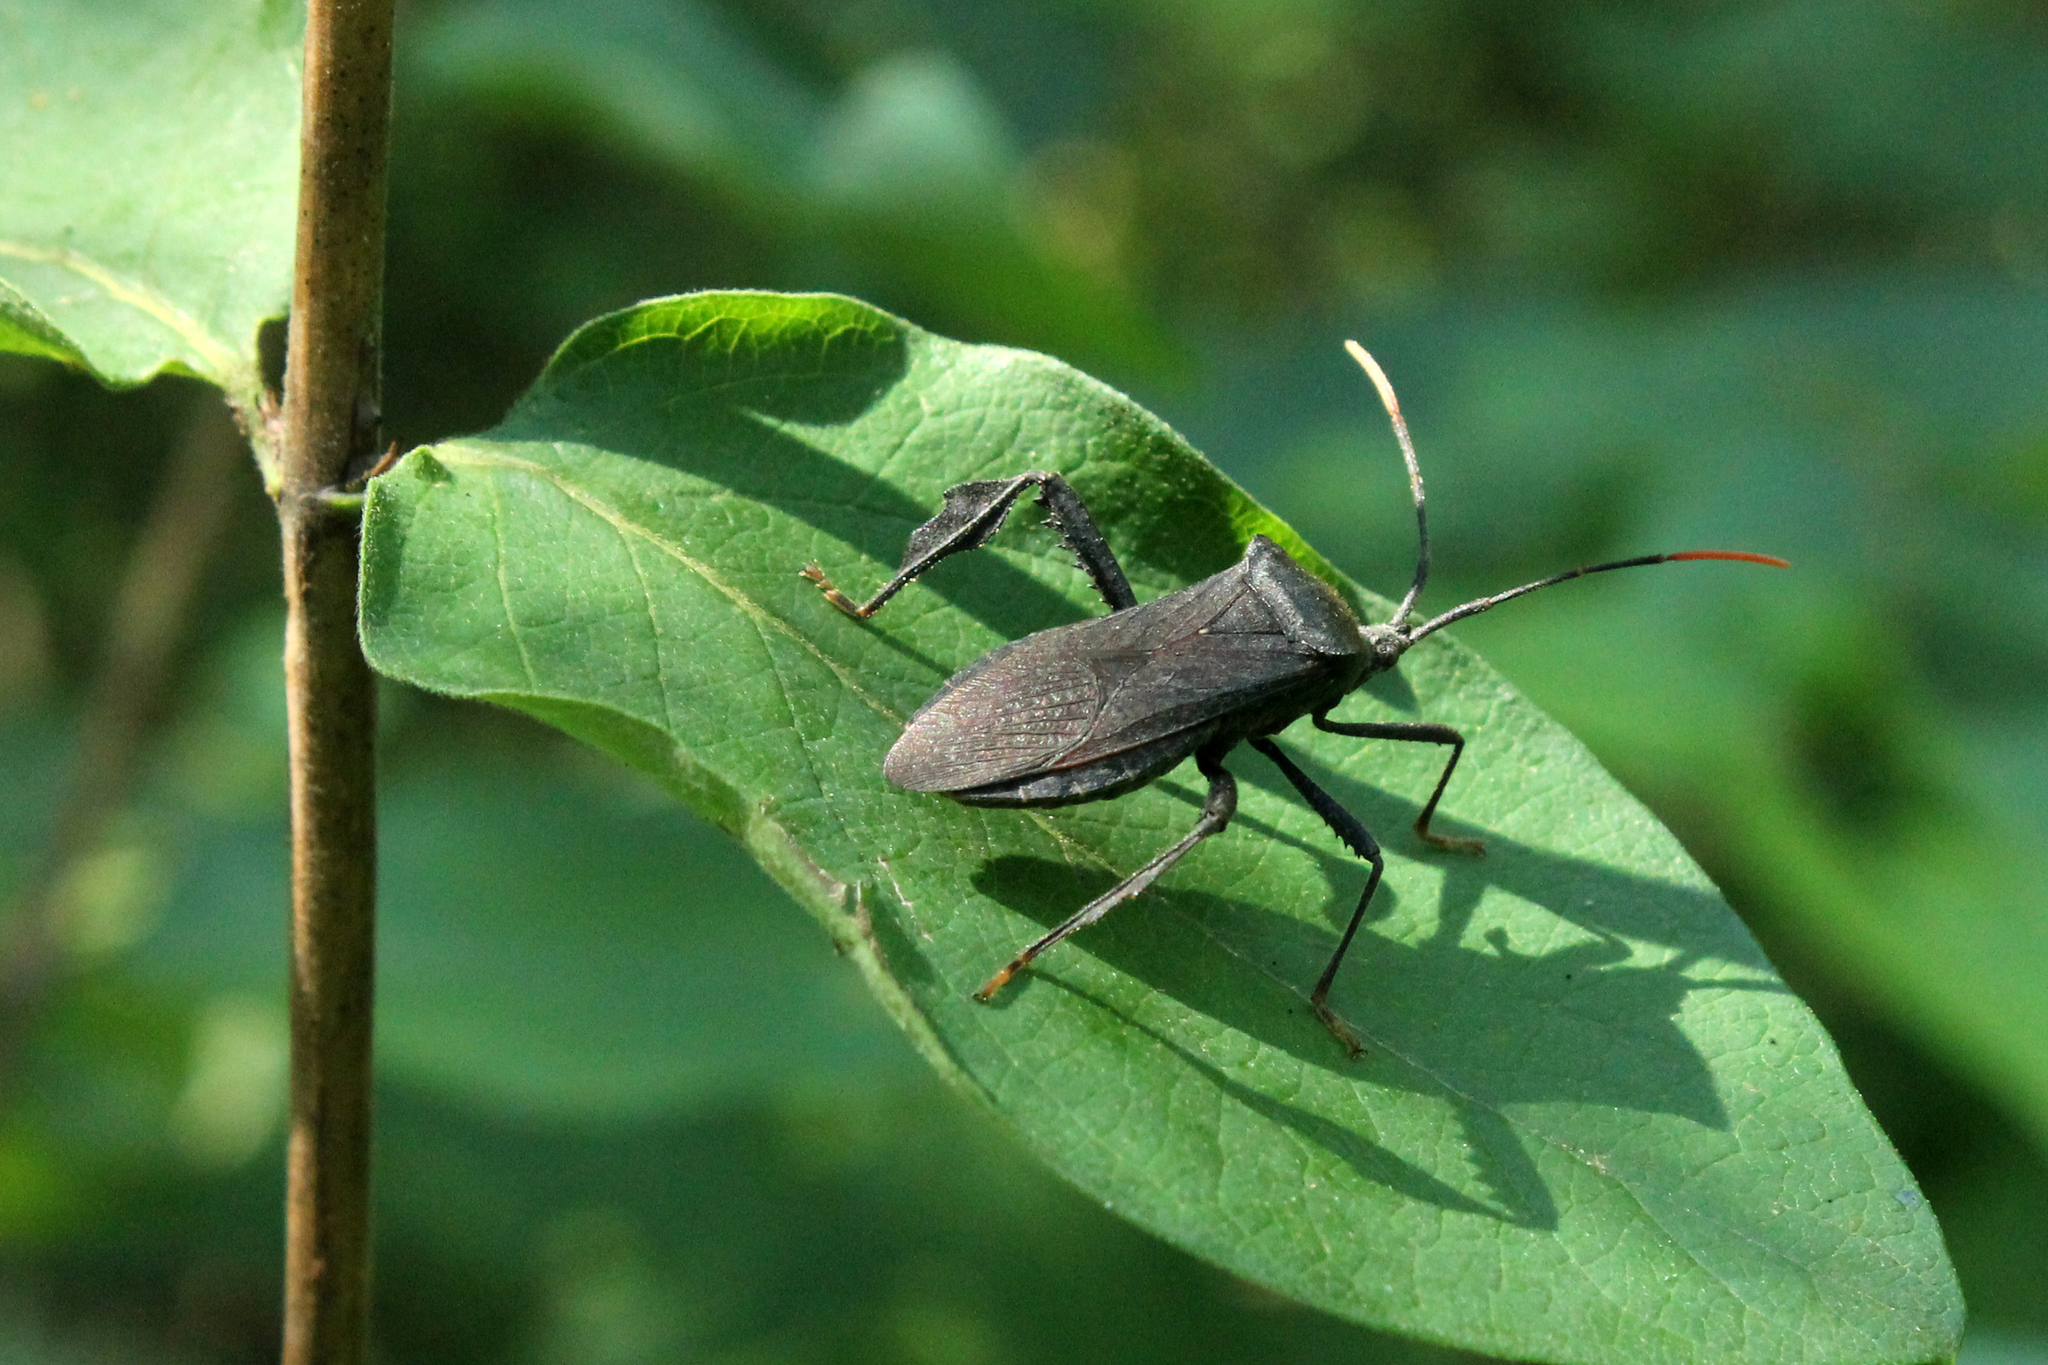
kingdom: Animalia
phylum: Arthropoda
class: Insecta
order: Hemiptera
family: Coreidae
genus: Acanthocephala
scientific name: Acanthocephala terminalis
